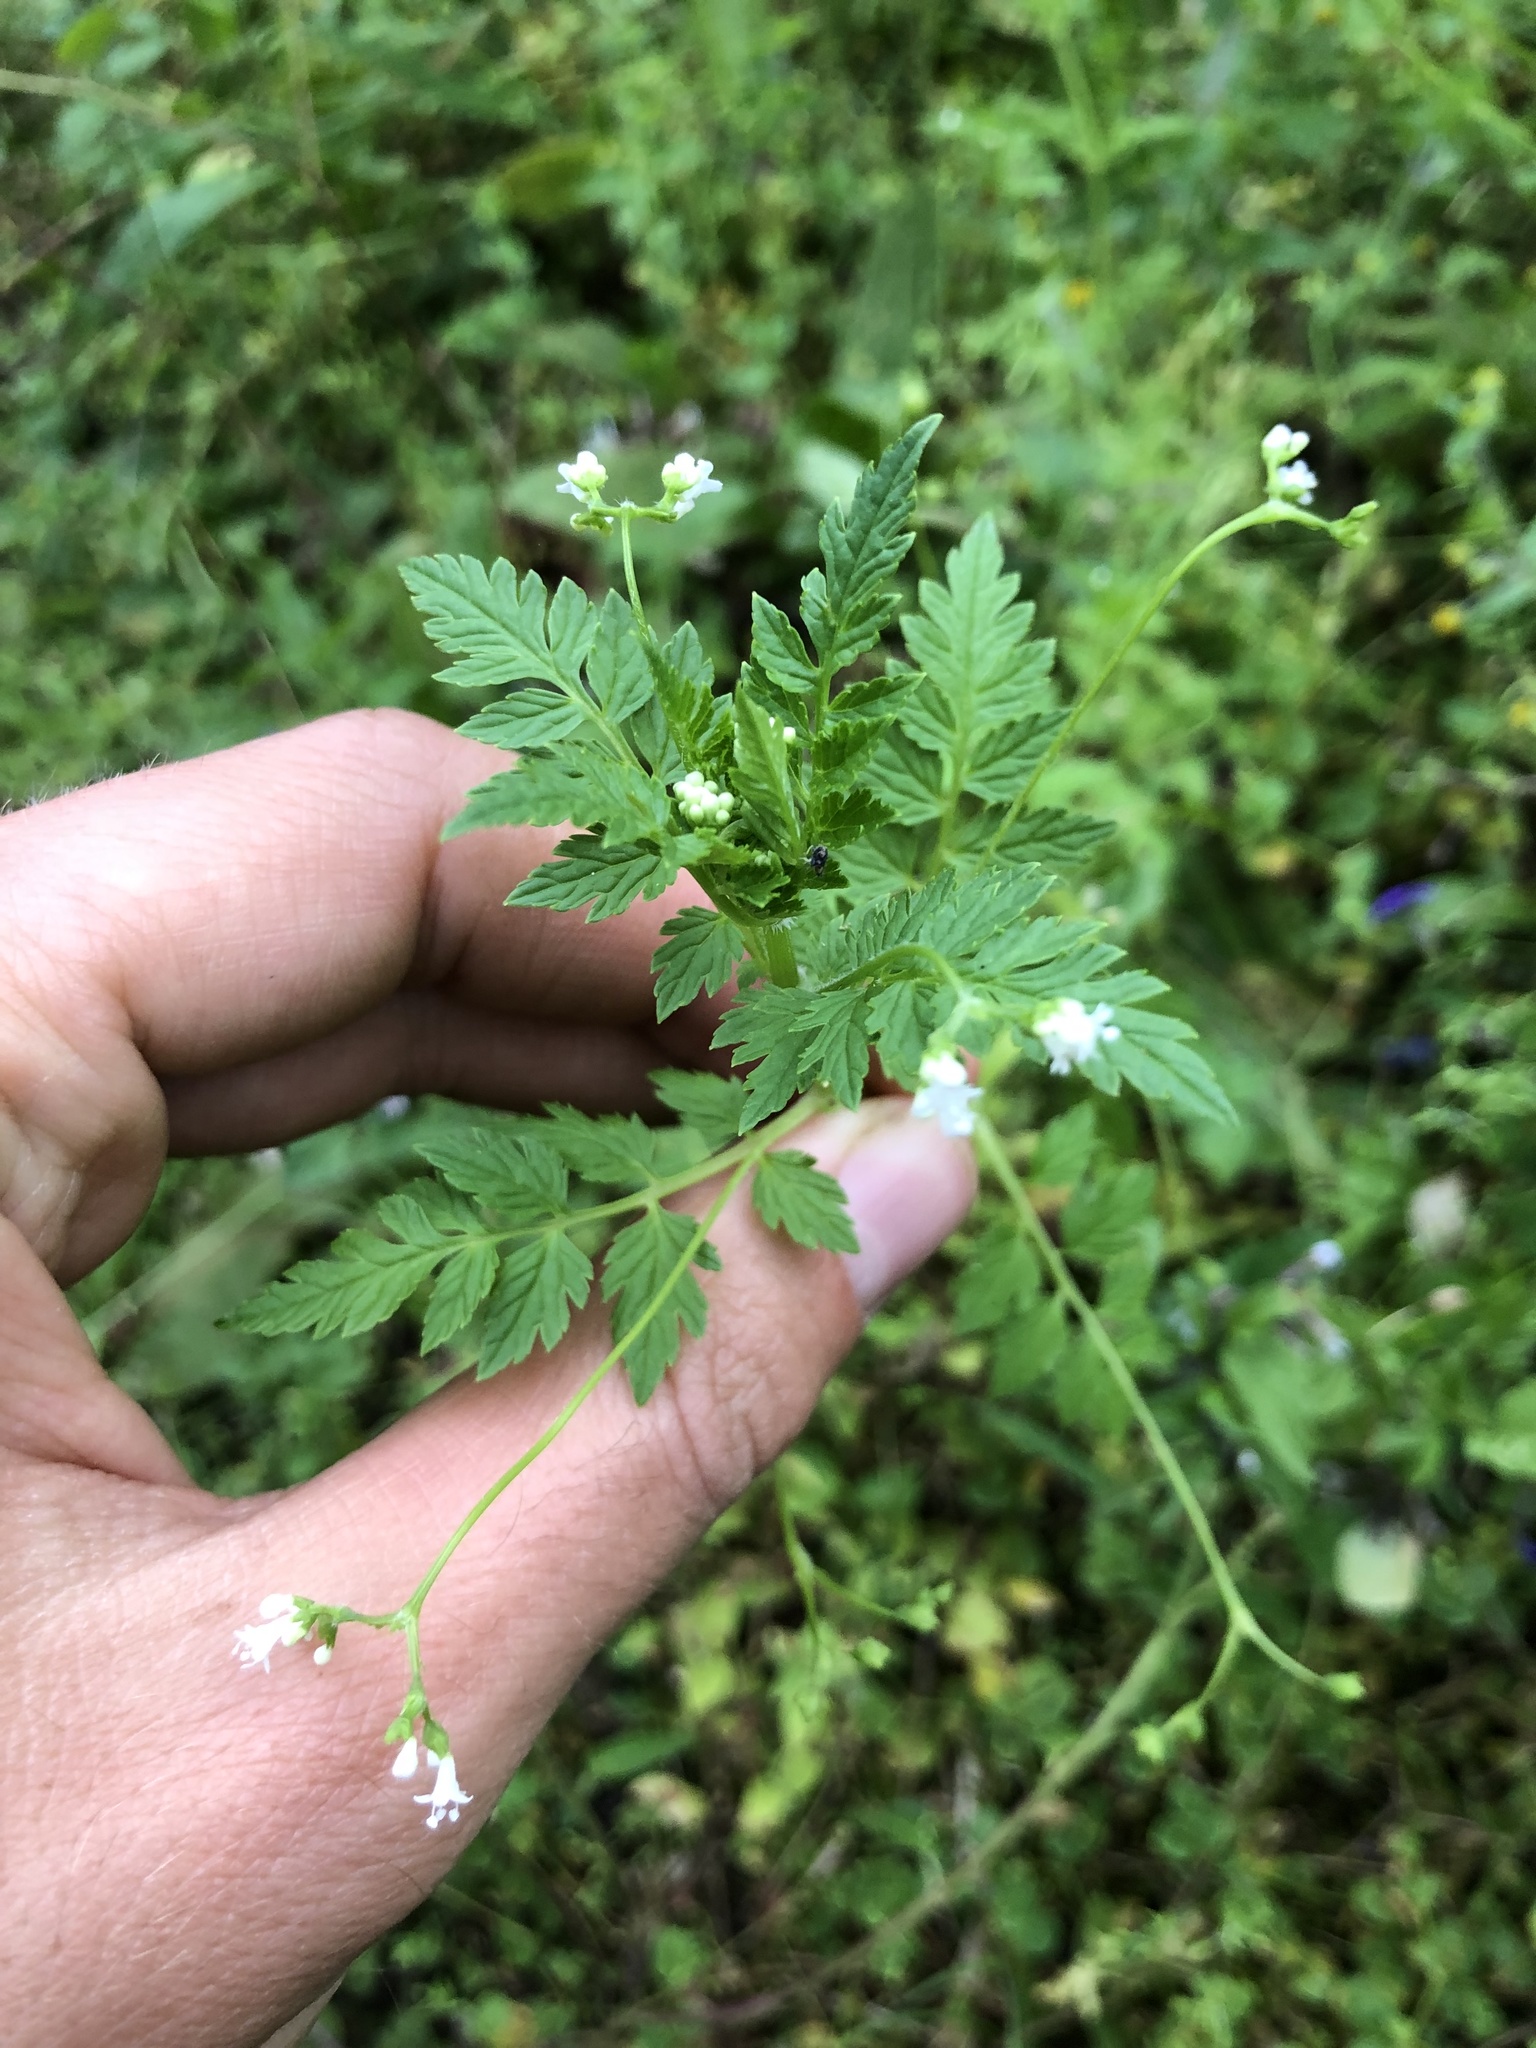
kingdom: Plantae
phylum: Tracheophyta
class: Magnoliopsida
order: Dipsacales
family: Caprifoliaceae
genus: Valeriana
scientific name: Valeriana chaerophylloides
